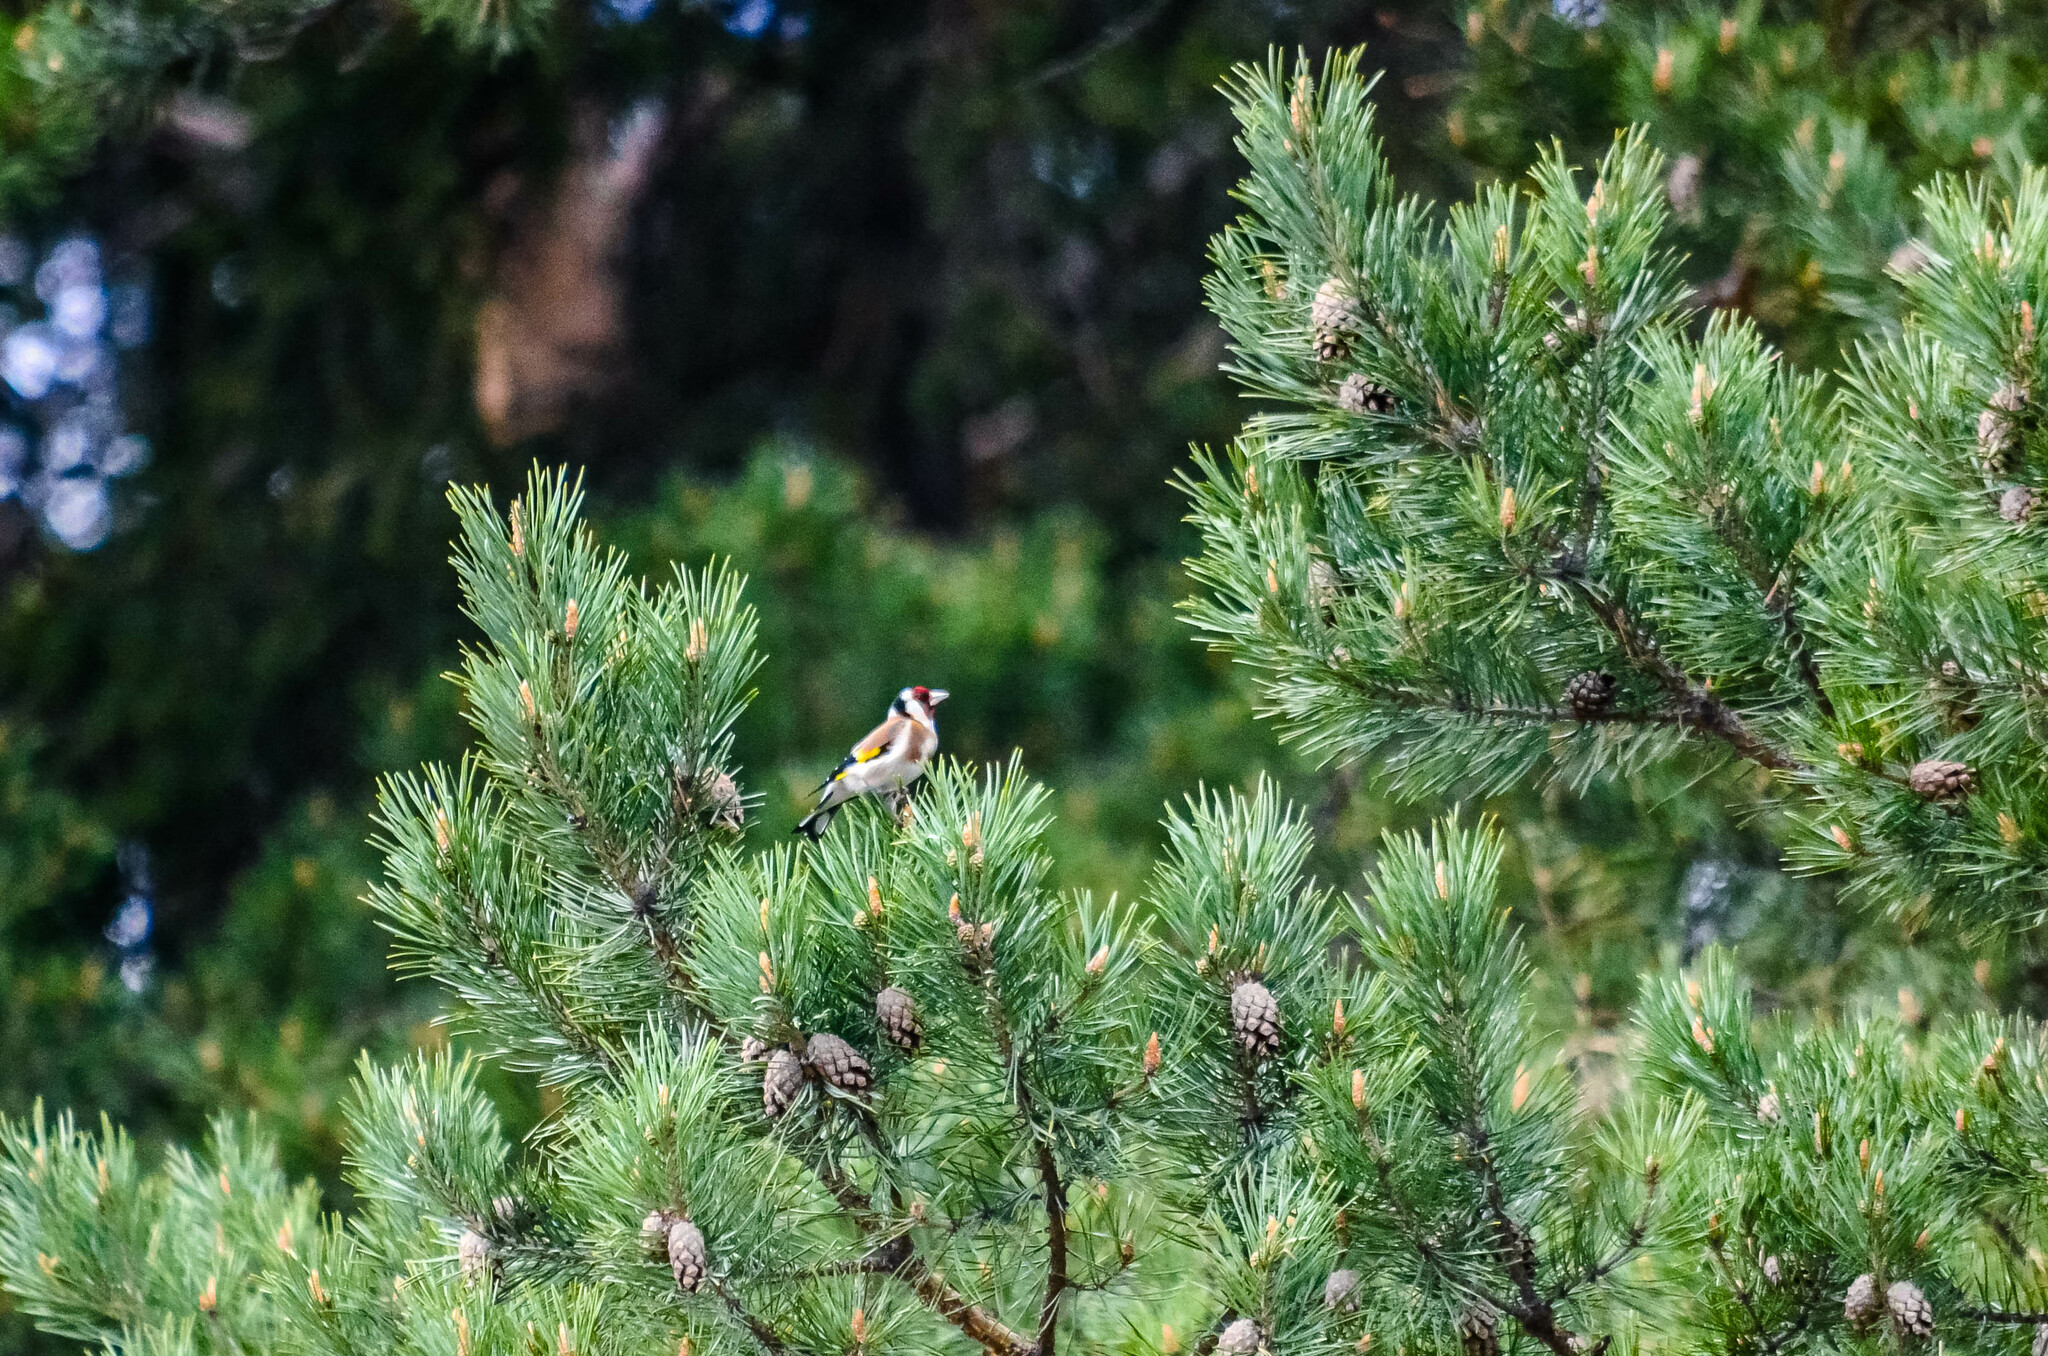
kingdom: Animalia
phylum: Chordata
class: Aves
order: Passeriformes
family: Fringillidae
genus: Carduelis
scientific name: Carduelis carduelis
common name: European goldfinch
